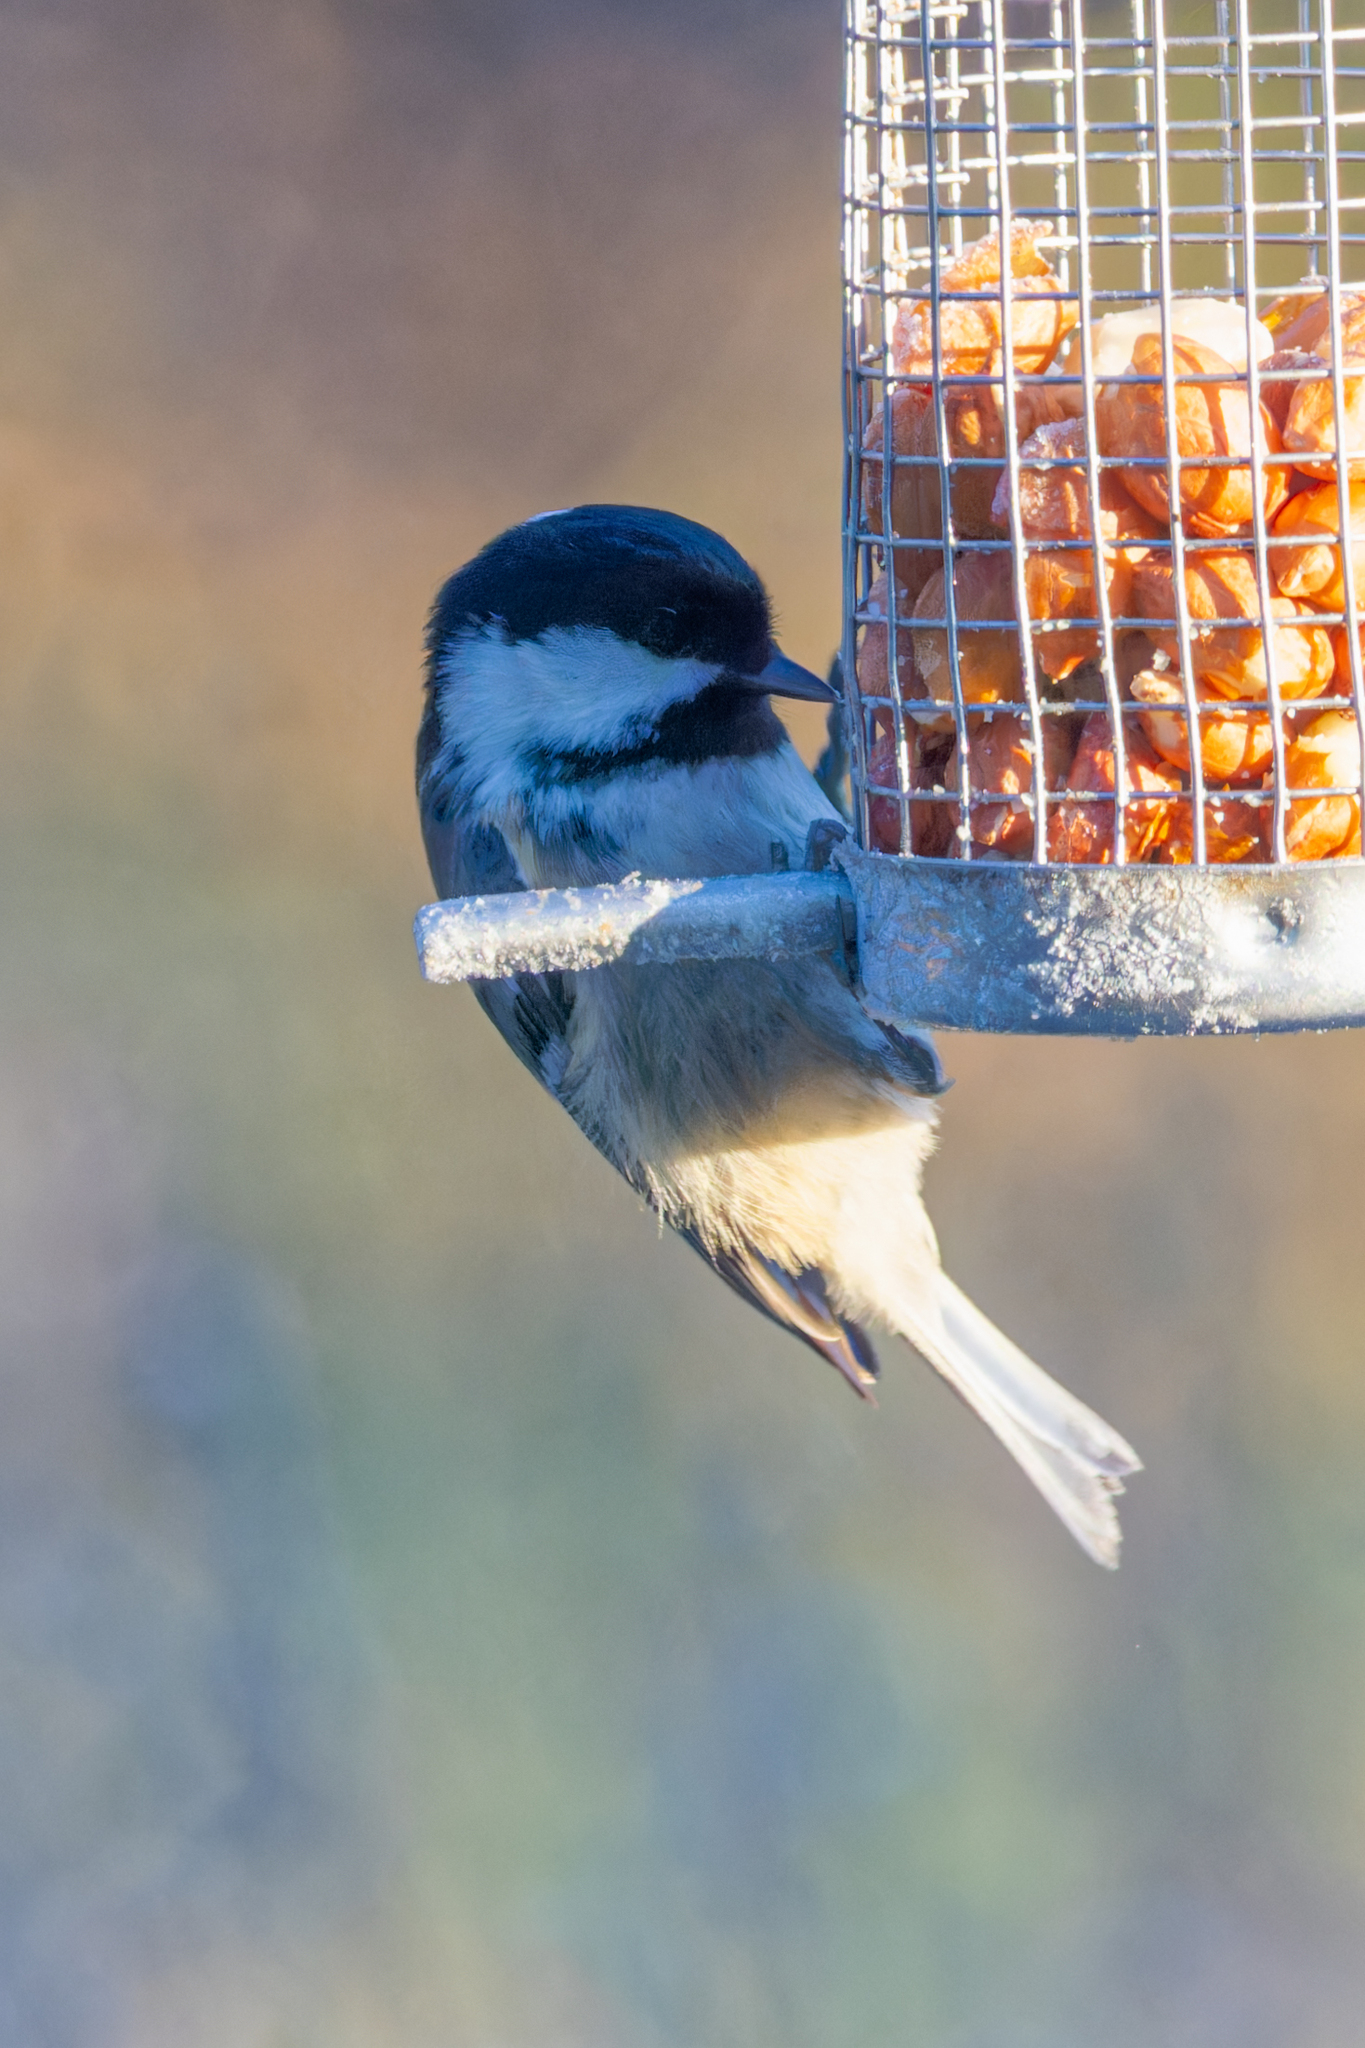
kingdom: Animalia
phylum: Chordata
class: Aves
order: Passeriformes
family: Paridae
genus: Periparus
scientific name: Periparus ater
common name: Coal tit
